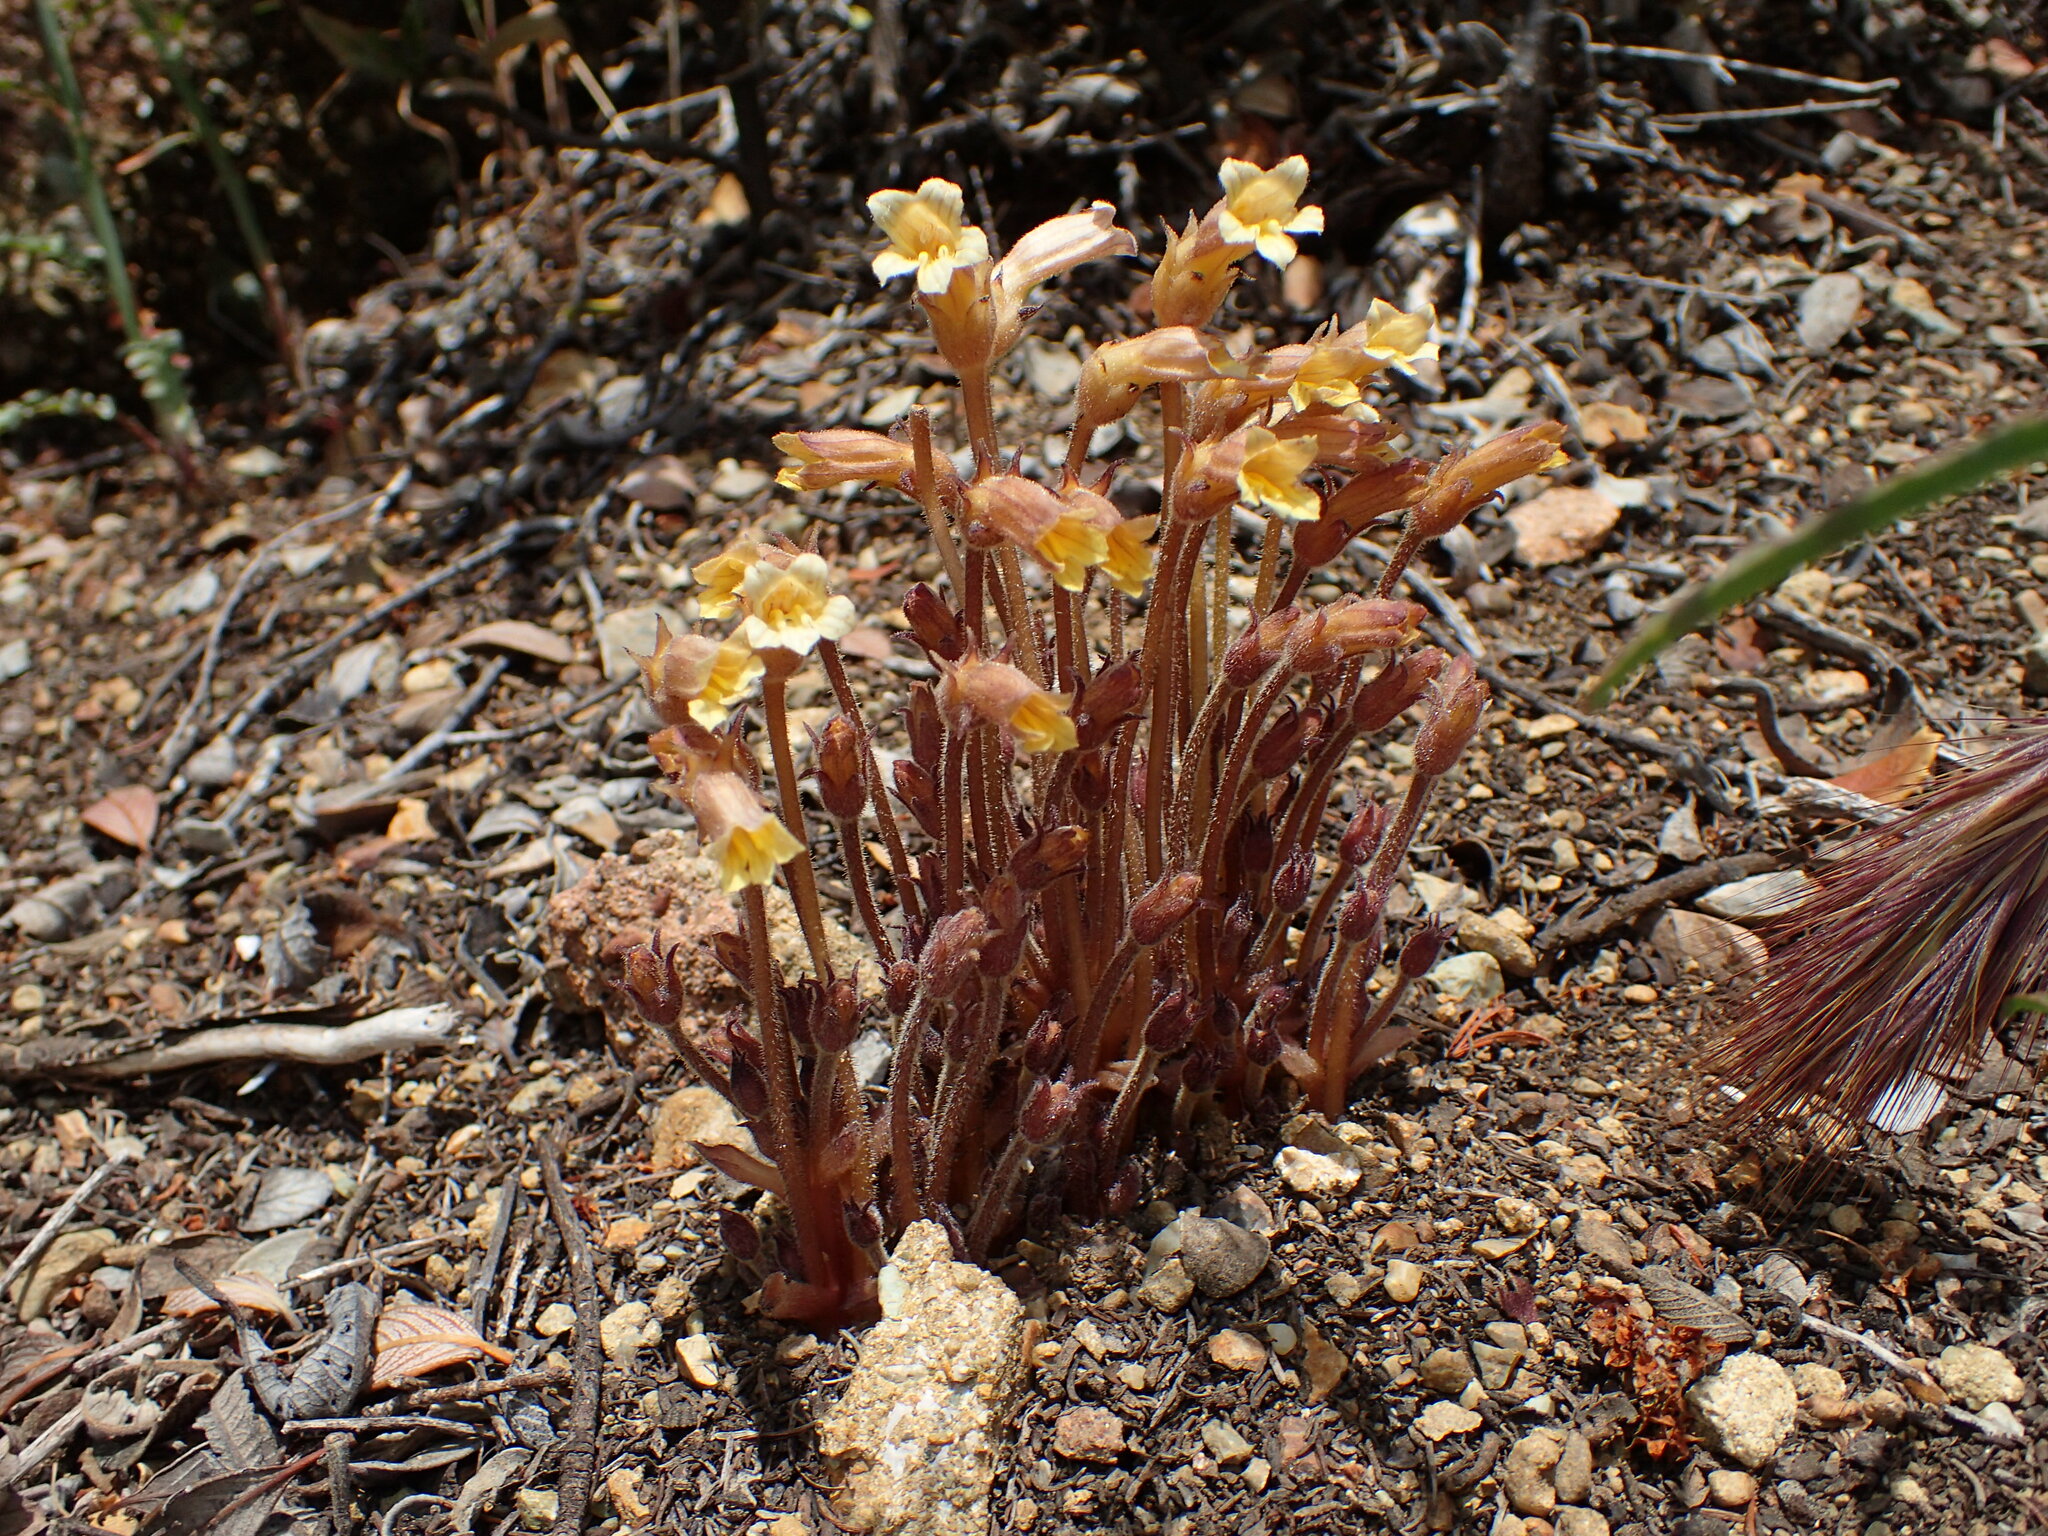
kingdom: Plantae
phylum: Tracheophyta
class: Magnoliopsida
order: Lamiales
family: Orobanchaceae
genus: Aphyllon
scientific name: Aphyllon franciscanum
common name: San francisco broomrape
